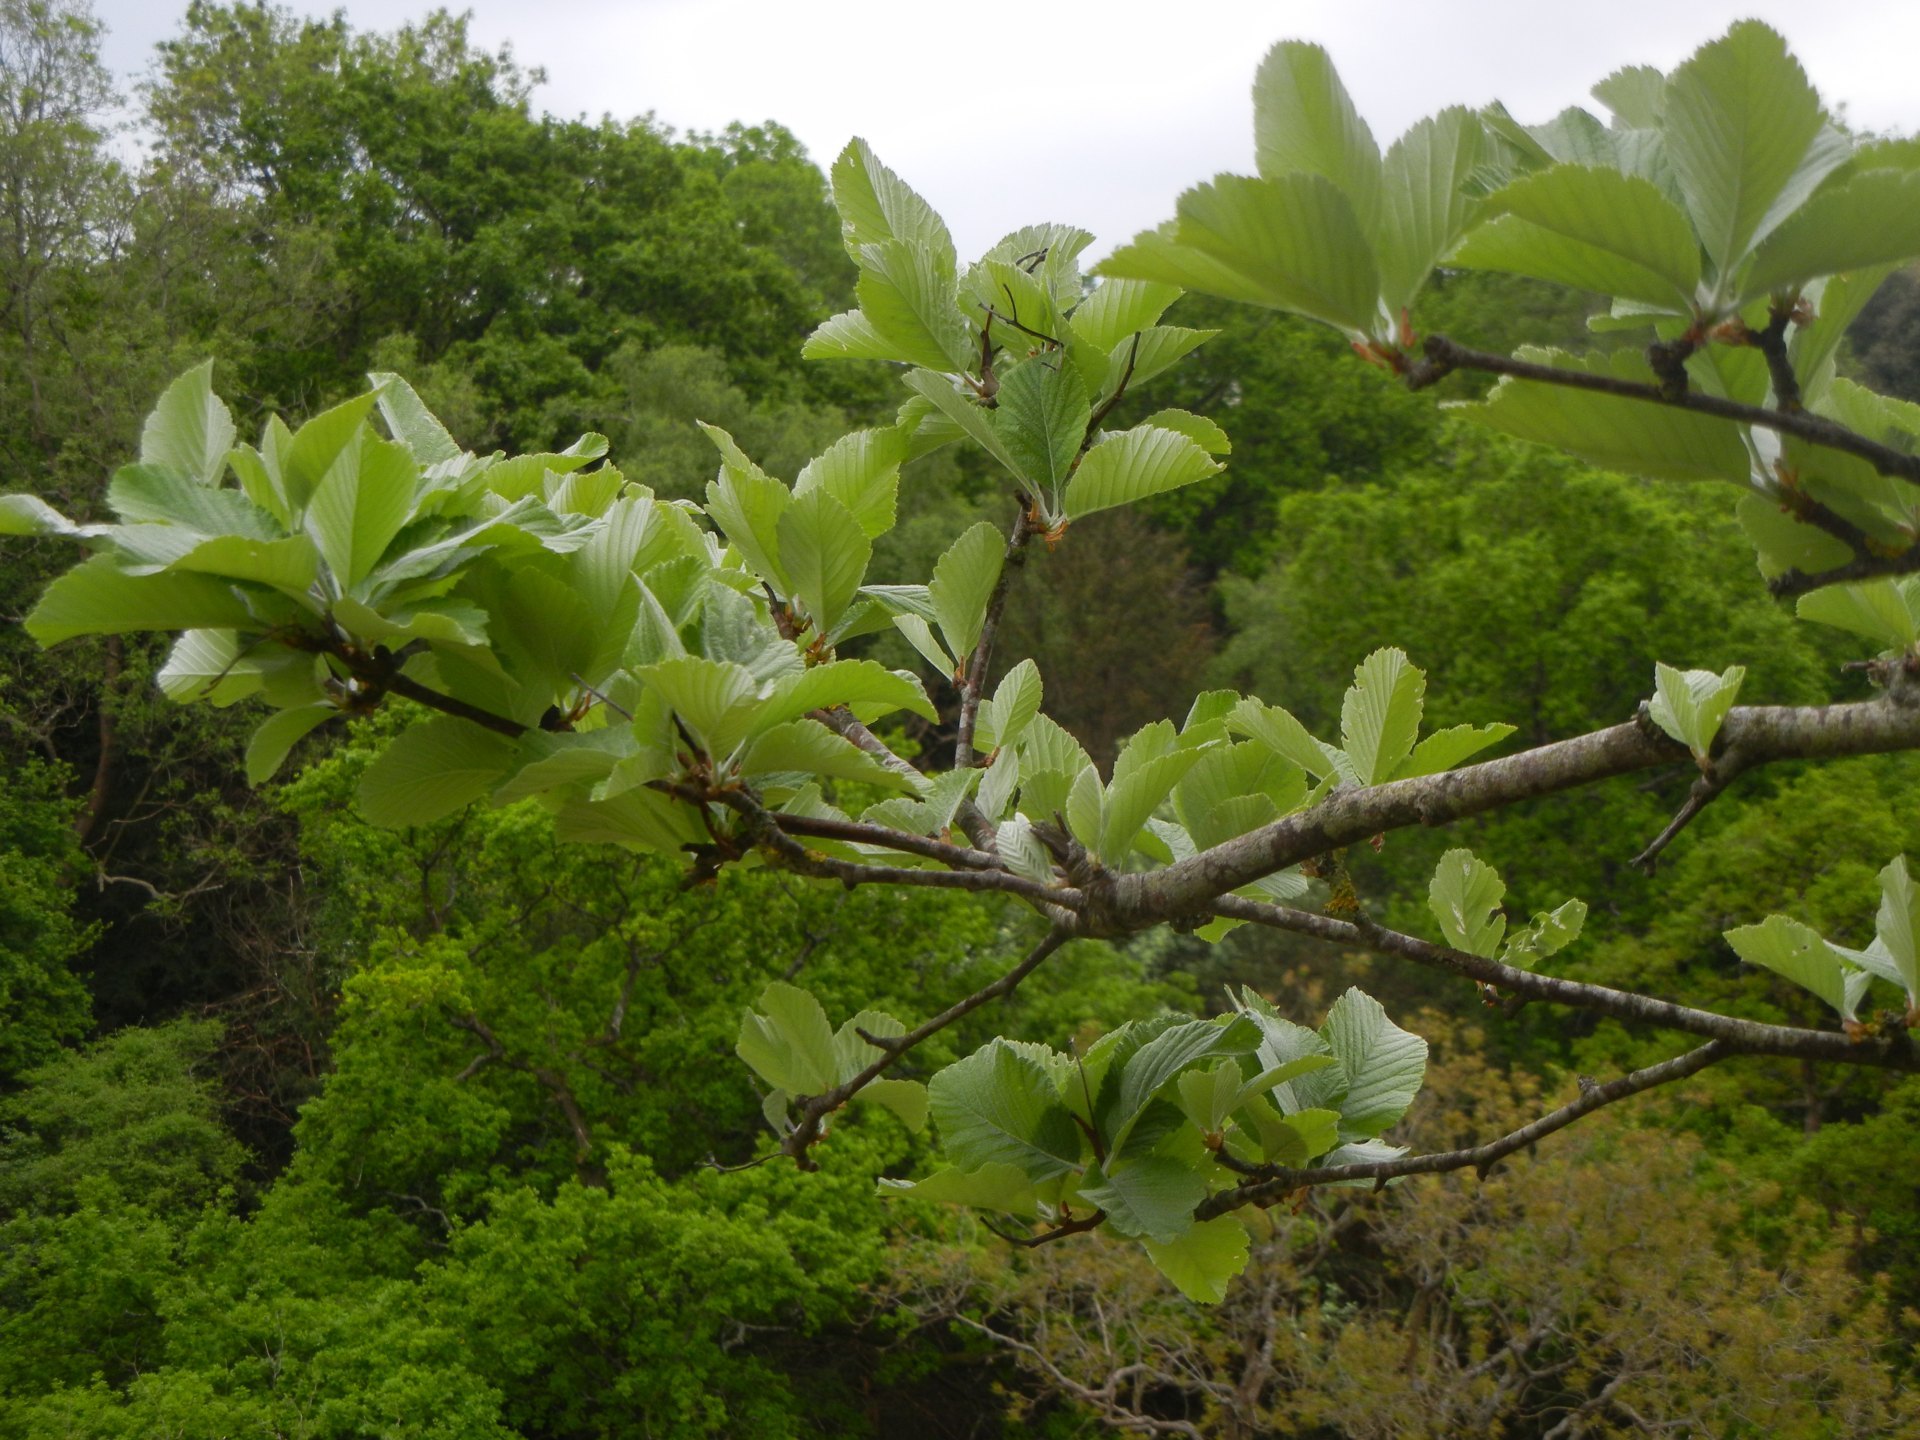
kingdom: Plantae
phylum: Tracheophyta
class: Magnoliopsida
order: Rosales
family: Rosaceae
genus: Aria
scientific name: Aria edulis
